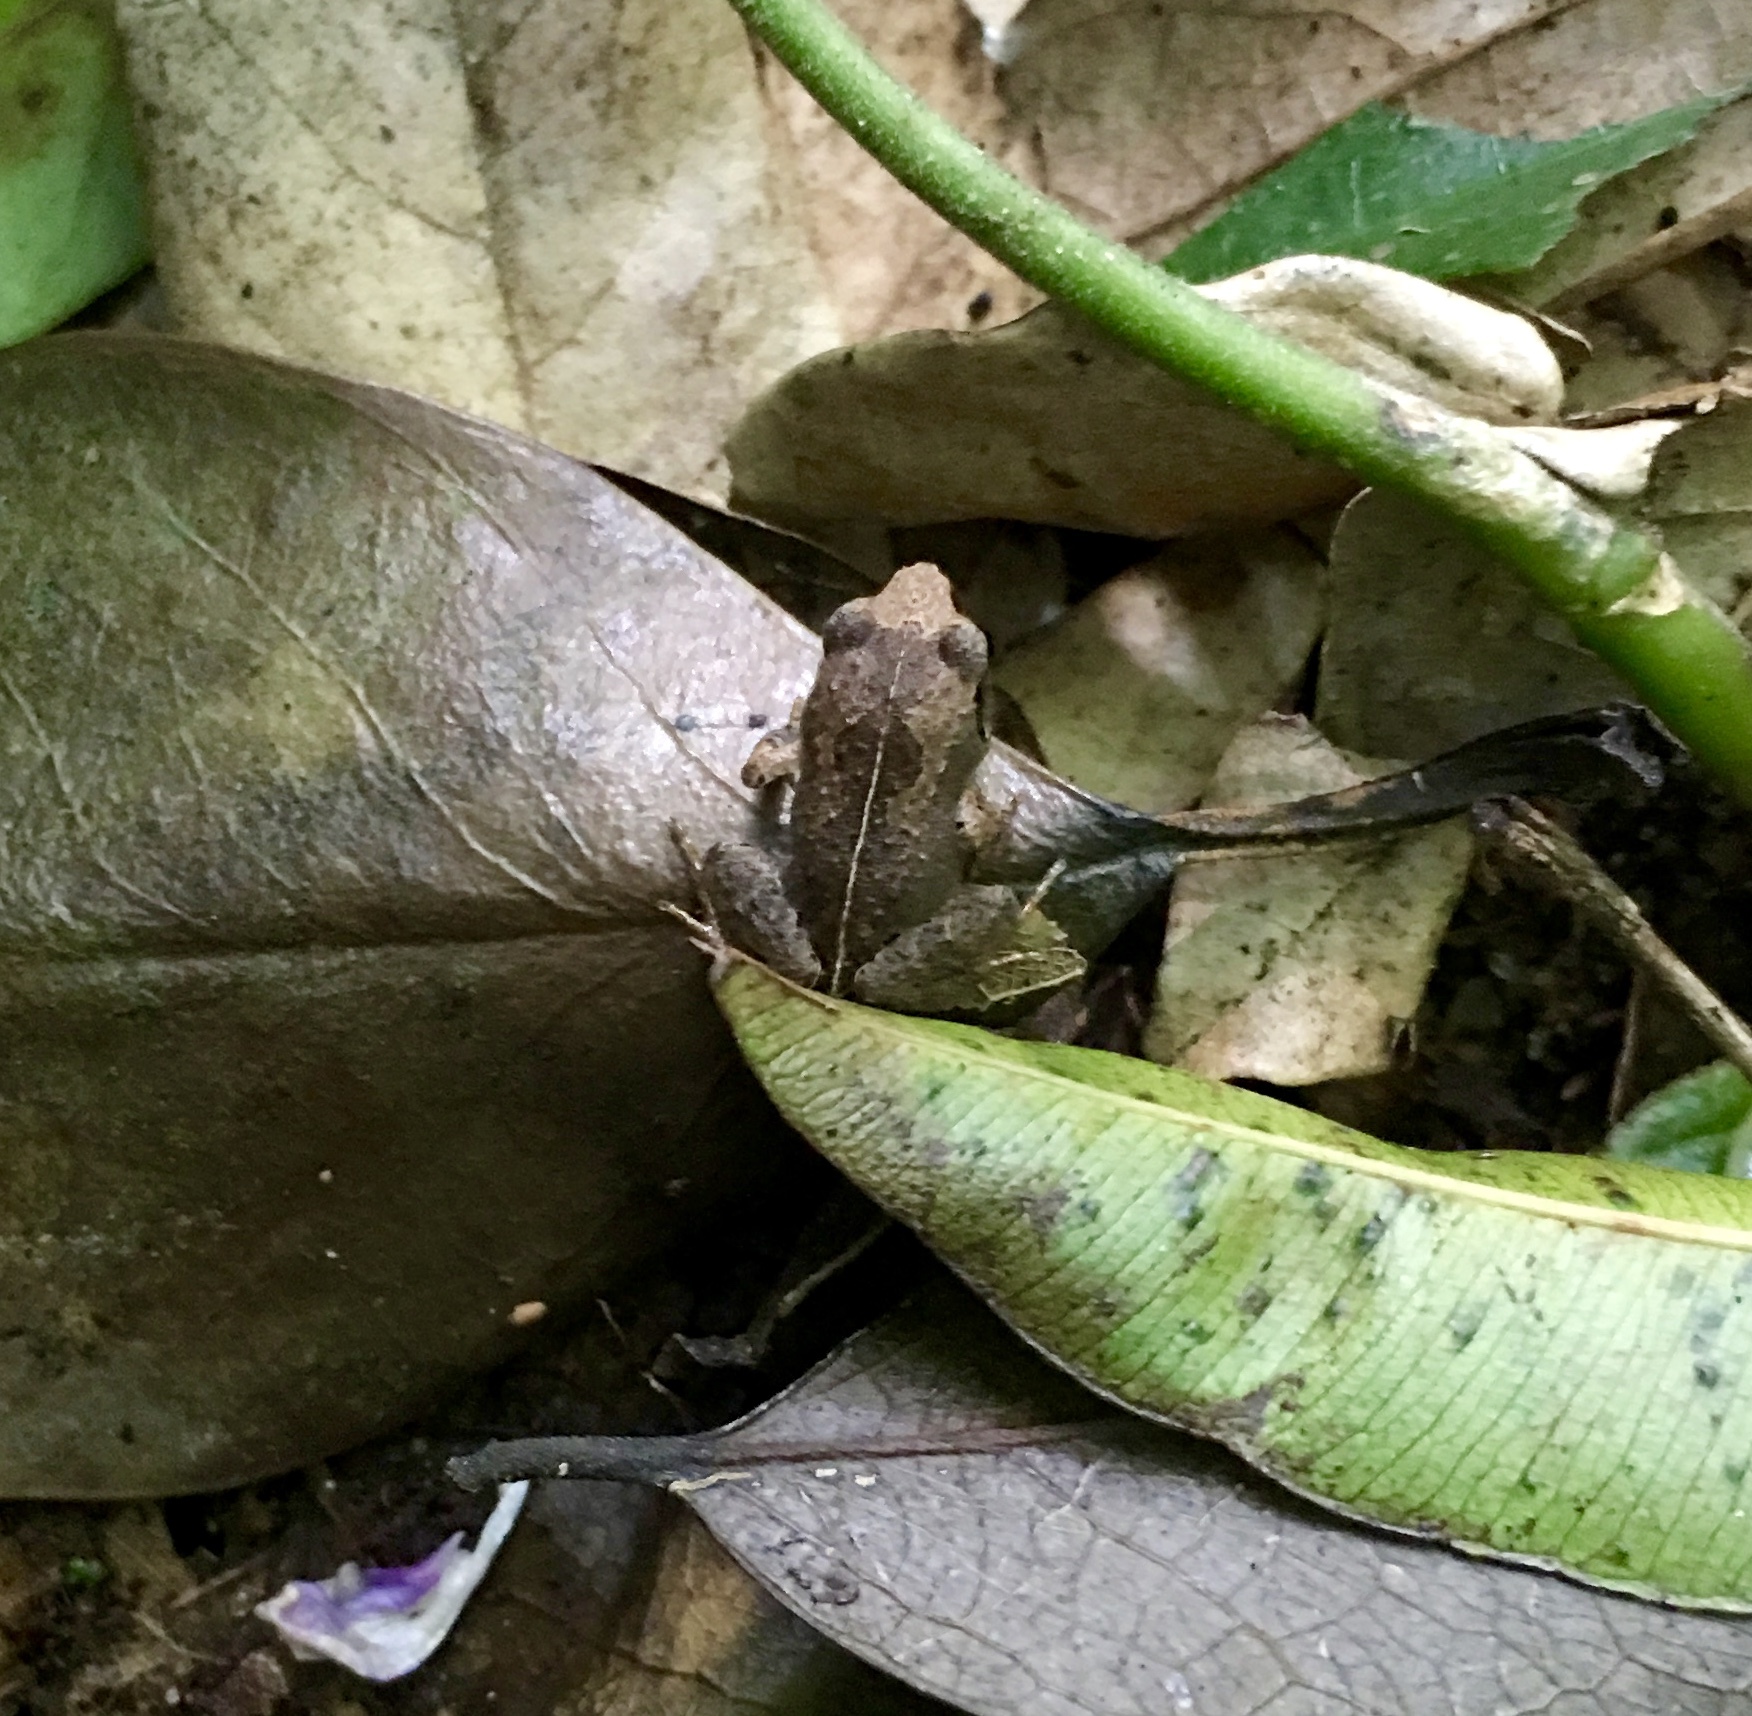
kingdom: Animalia
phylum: Chordata
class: Amphibia
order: Anura
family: Arthroleptidae
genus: Arthroleptis
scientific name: Arthroleptis wahlbergii
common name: Bush squeaker
